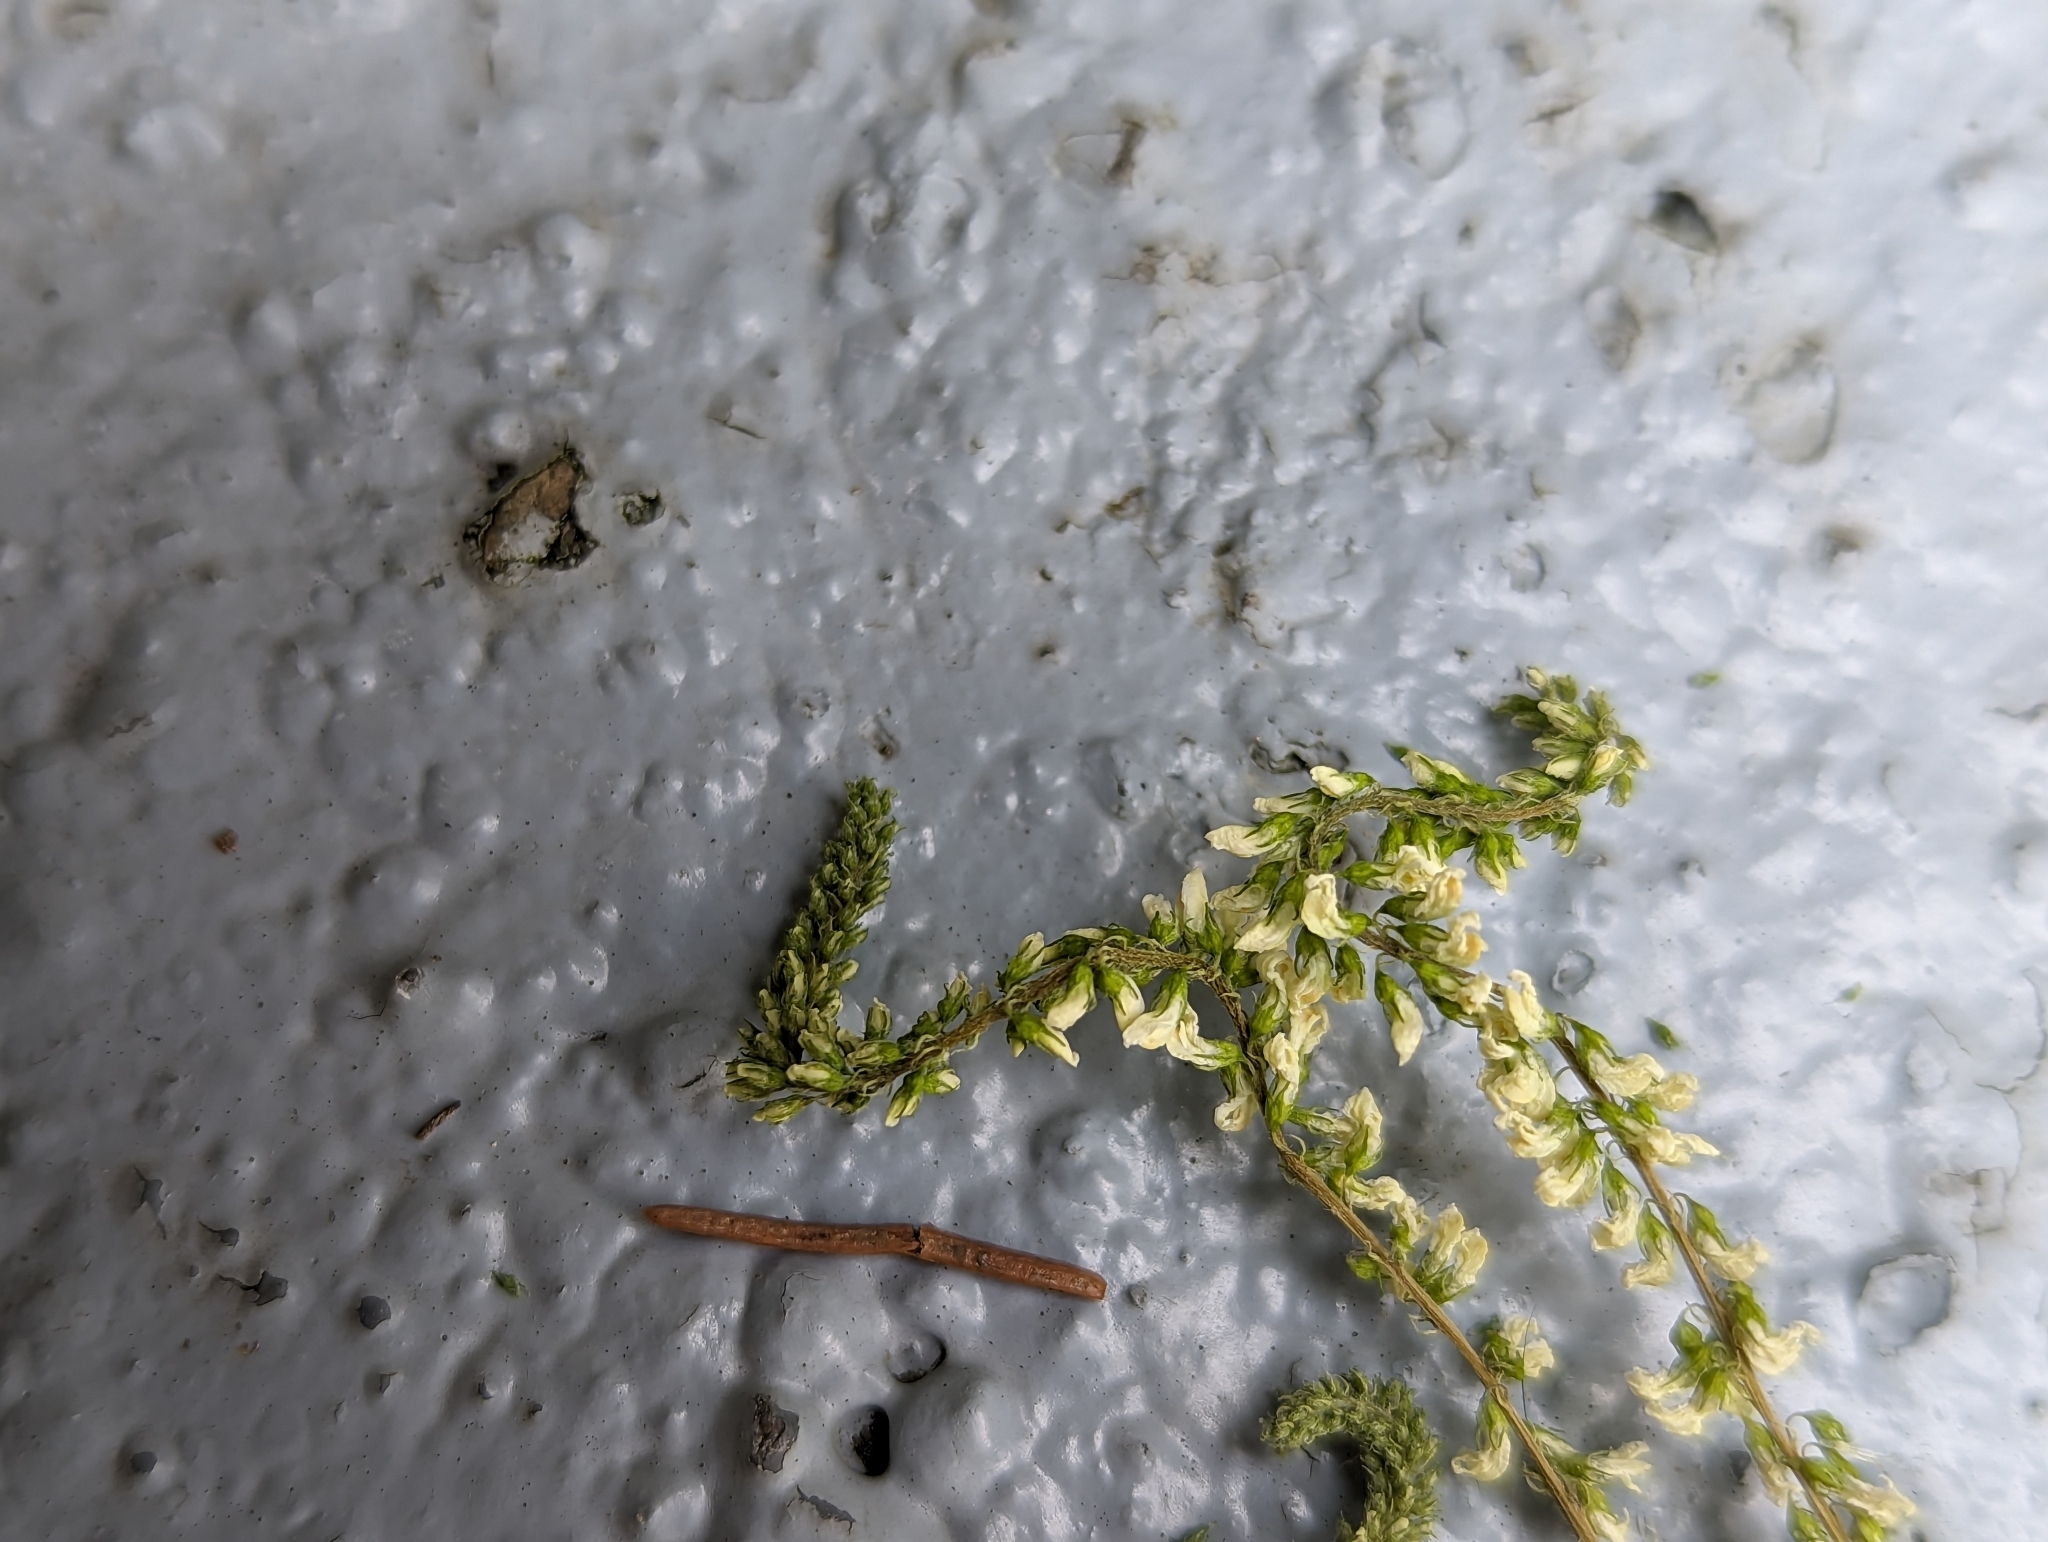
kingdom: Plantae
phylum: Tracheophyta
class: Magnoliopsida
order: Fabales
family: Fabaceae
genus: Melilotus
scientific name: Melilotus albus
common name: White melilot
